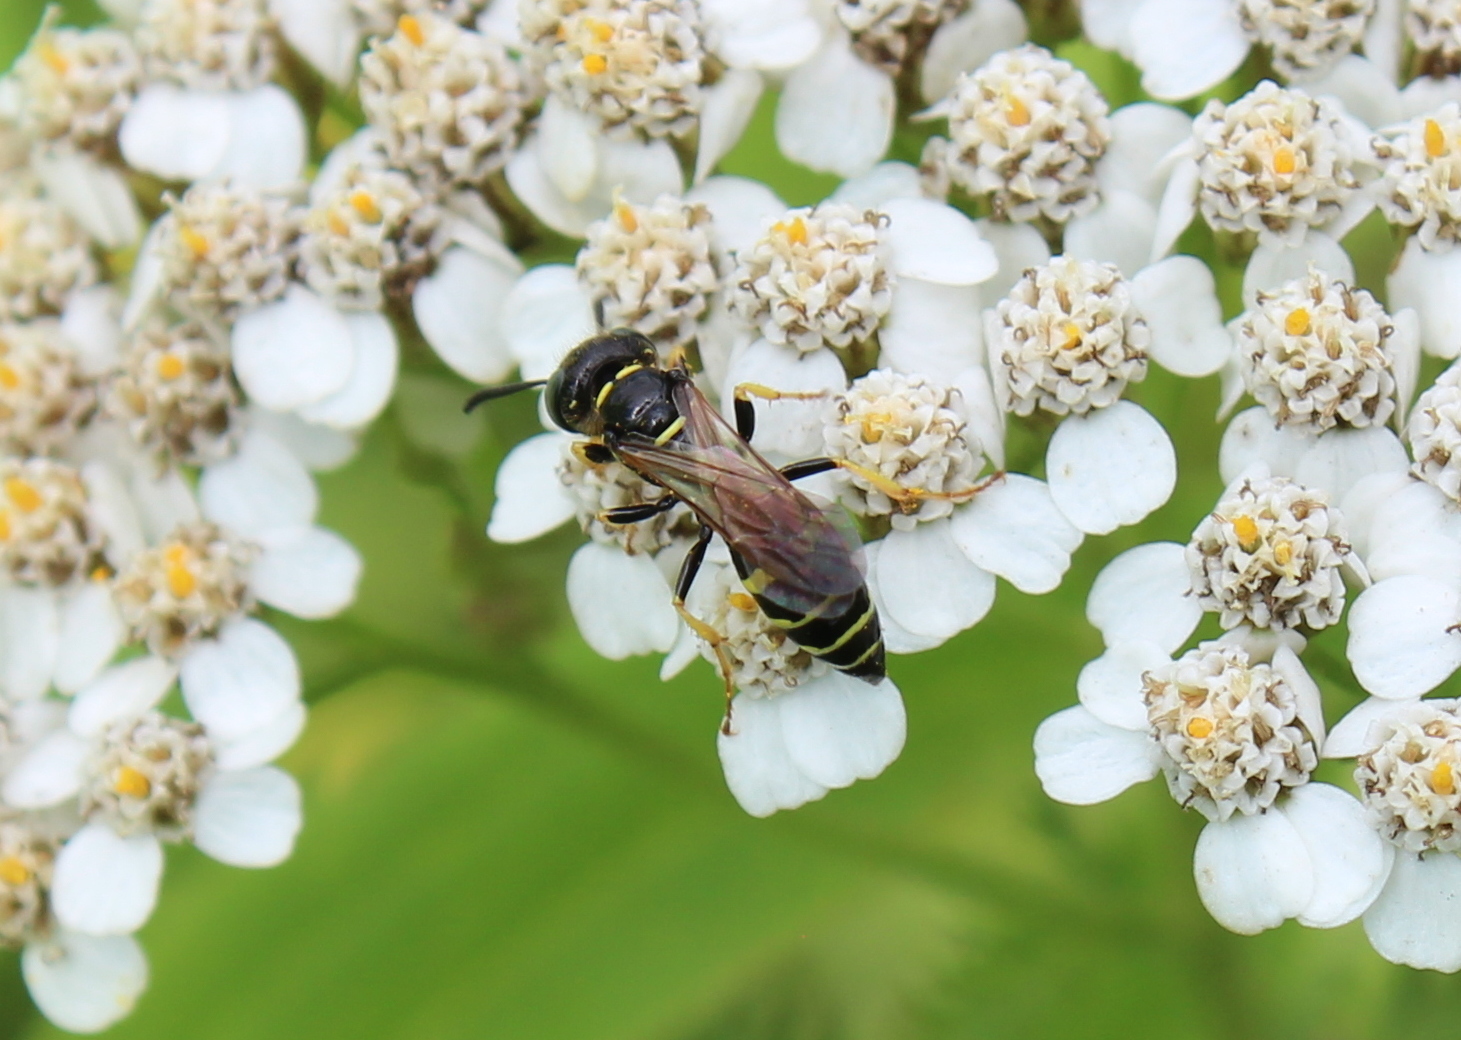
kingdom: Animalia
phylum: Arthropoda
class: Insecta
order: Hymenoptera
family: Crabronidae
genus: Philanthus
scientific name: Philanthus bilunatus
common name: Two moons beewolf
